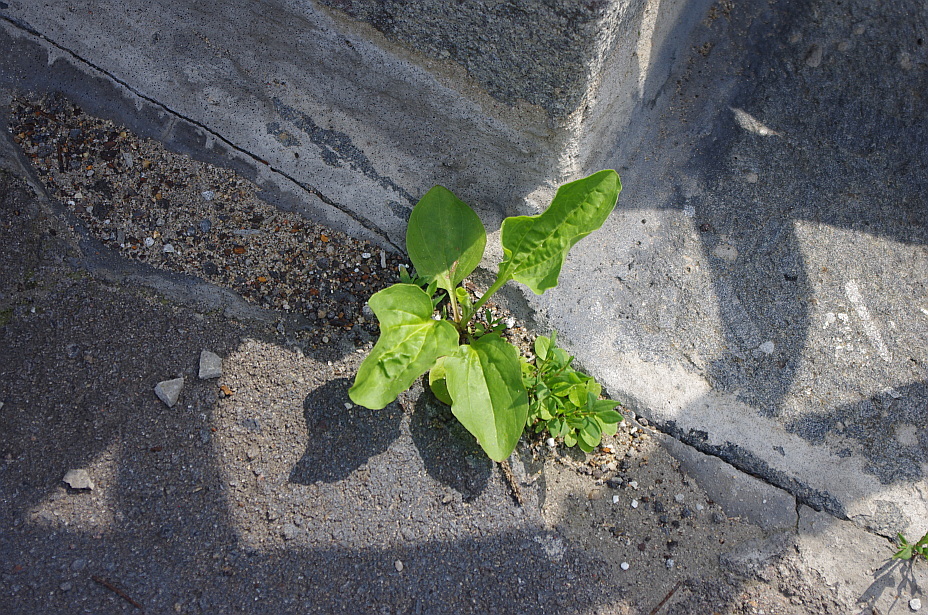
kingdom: Plantae
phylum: Tracheophyta
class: Magnoliopsida
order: Lamiales
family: Plantaginaceae
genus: Plantago
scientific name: Plantago major
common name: Common plantain
